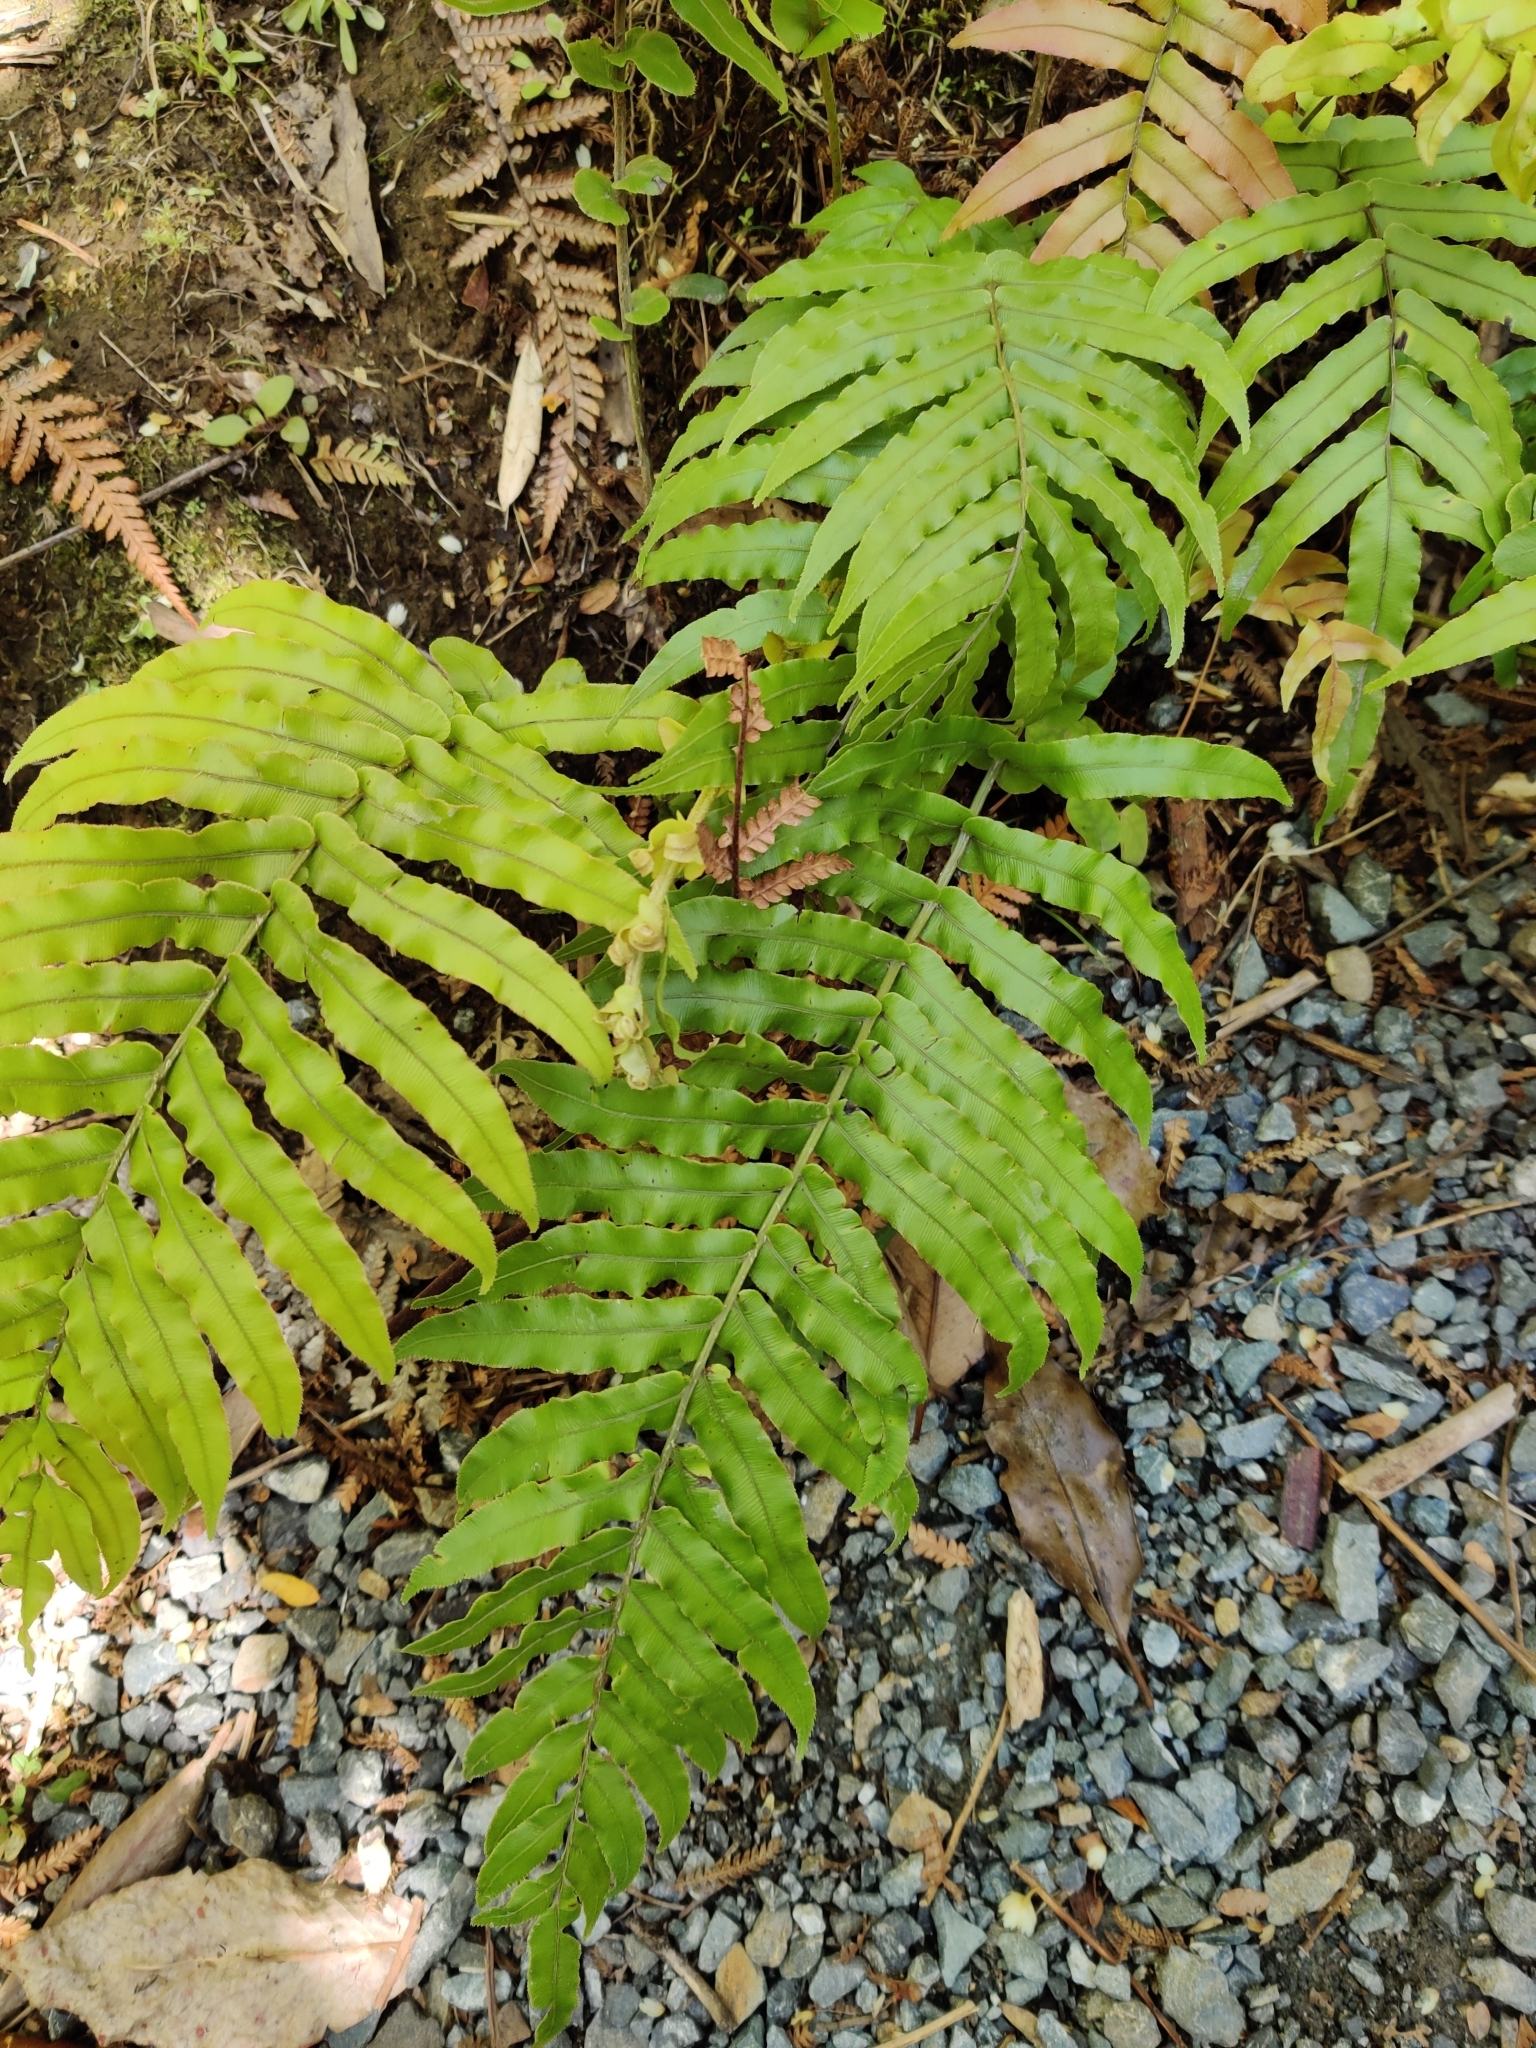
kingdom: Plantae
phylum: Tracheophyta
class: Polypodiopsida
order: Polypodiales
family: Blechnaceae
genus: Parablechnum
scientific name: Parablechnum novae-zelandiae
